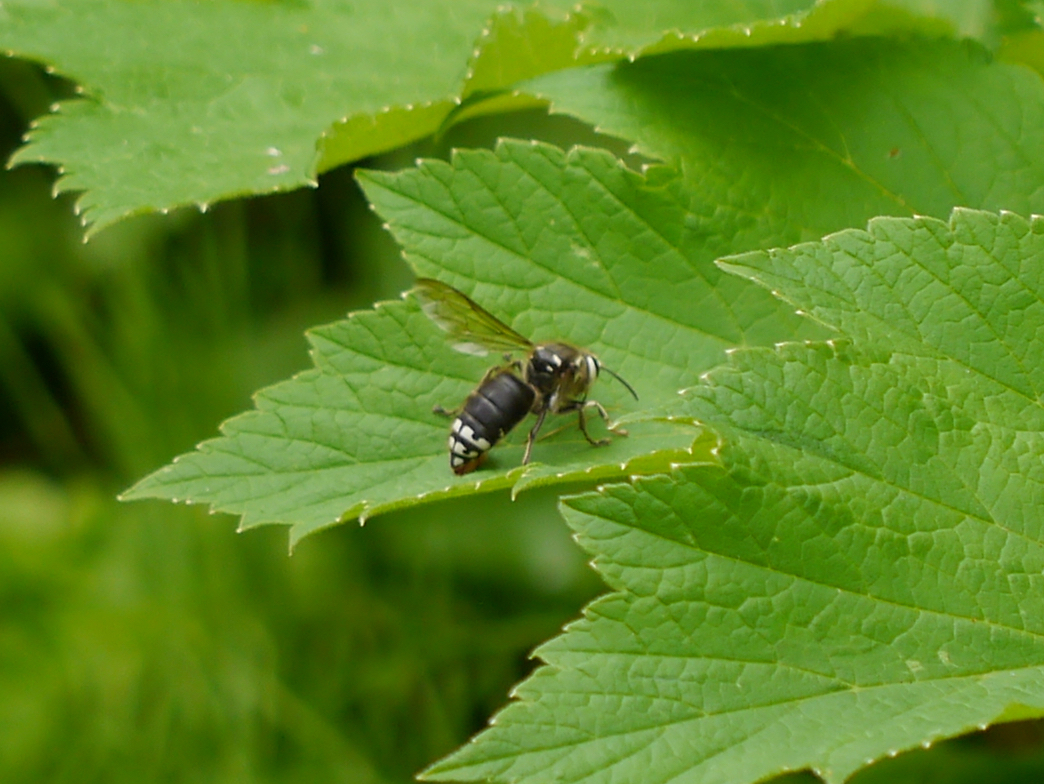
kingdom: Animalia
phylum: Arthropoda
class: Insecta
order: Hymenoptera
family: Vespidae
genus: Dolichovespula
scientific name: Dolichovespula maculata
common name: Bald-faced hornet
